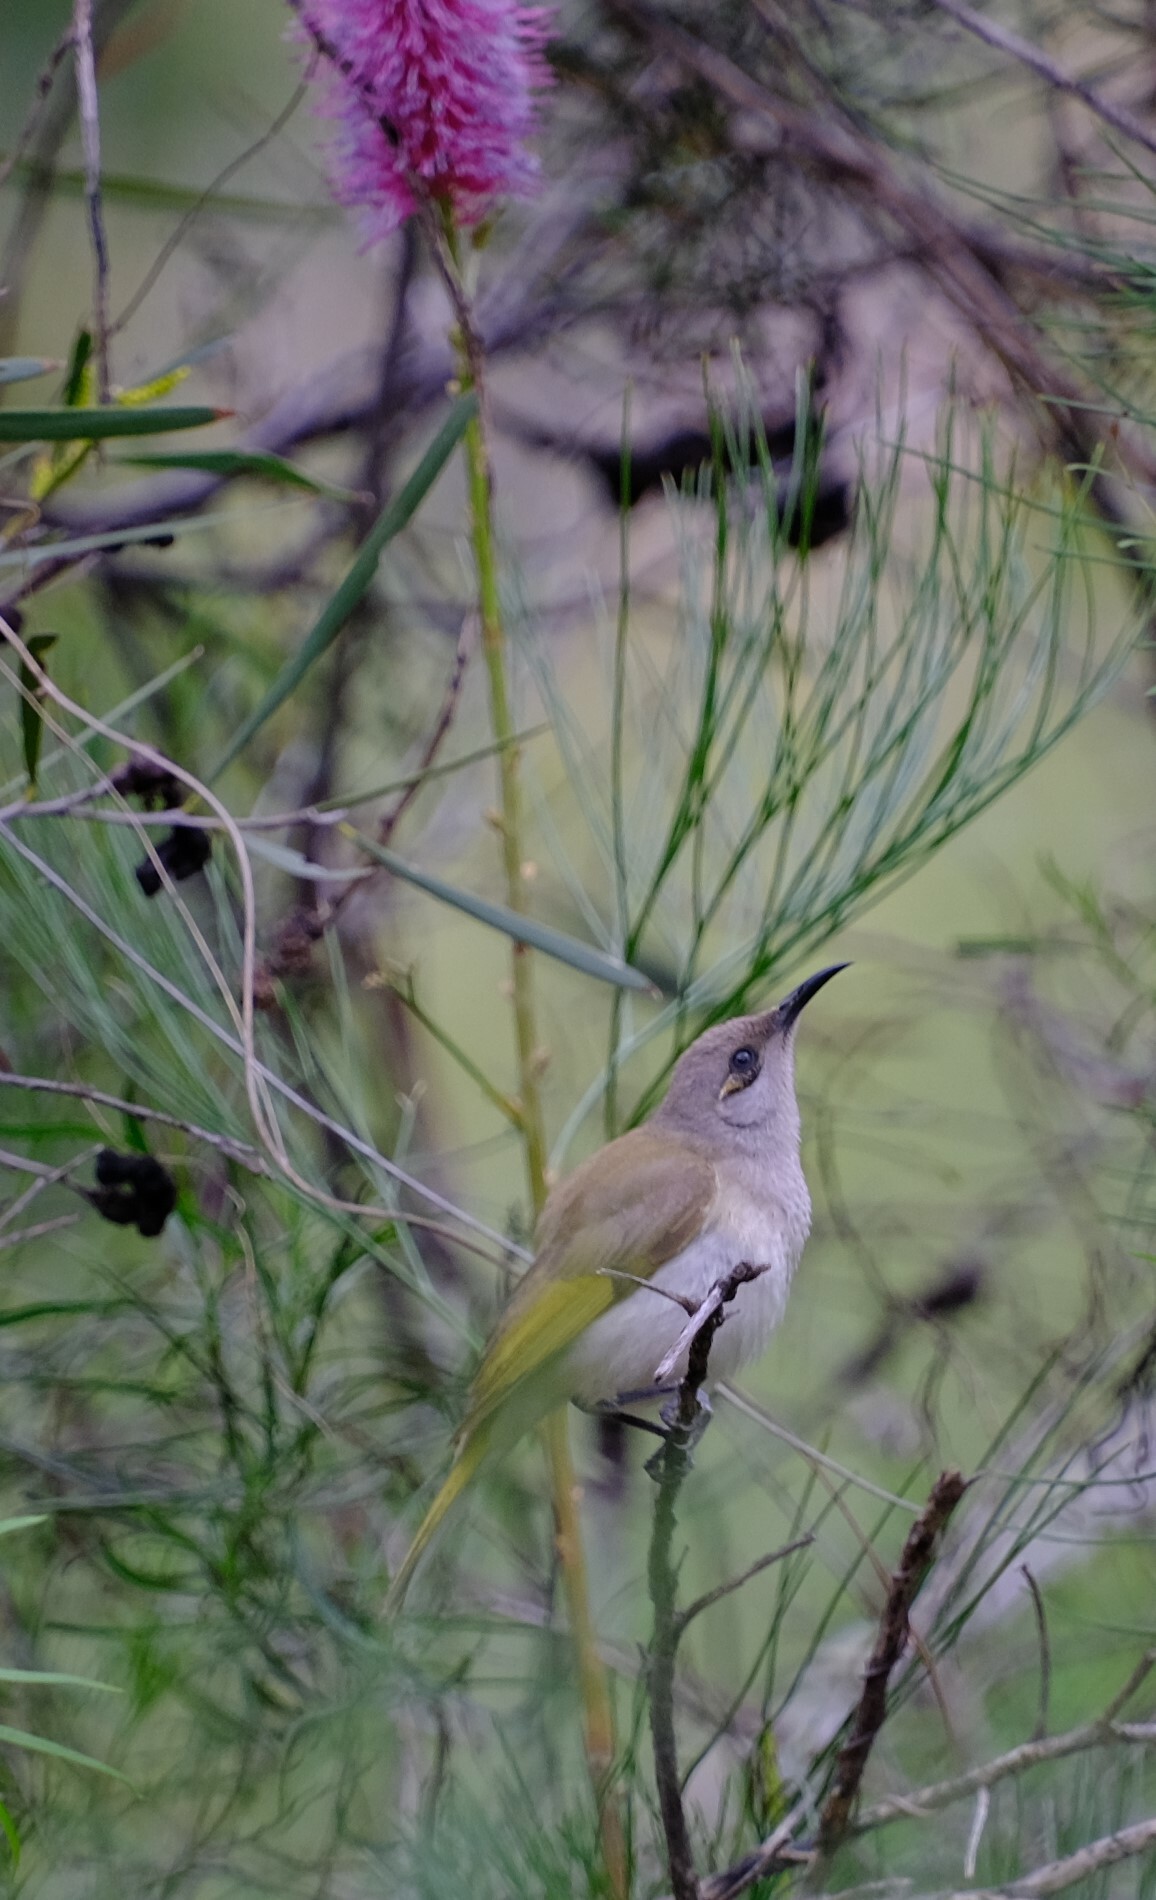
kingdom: Animalia
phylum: Chordata
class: Aves
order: Passeriformes
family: Meliphagidae
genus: Lichmera
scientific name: Lichmera indistincta
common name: Brown honeyeater
